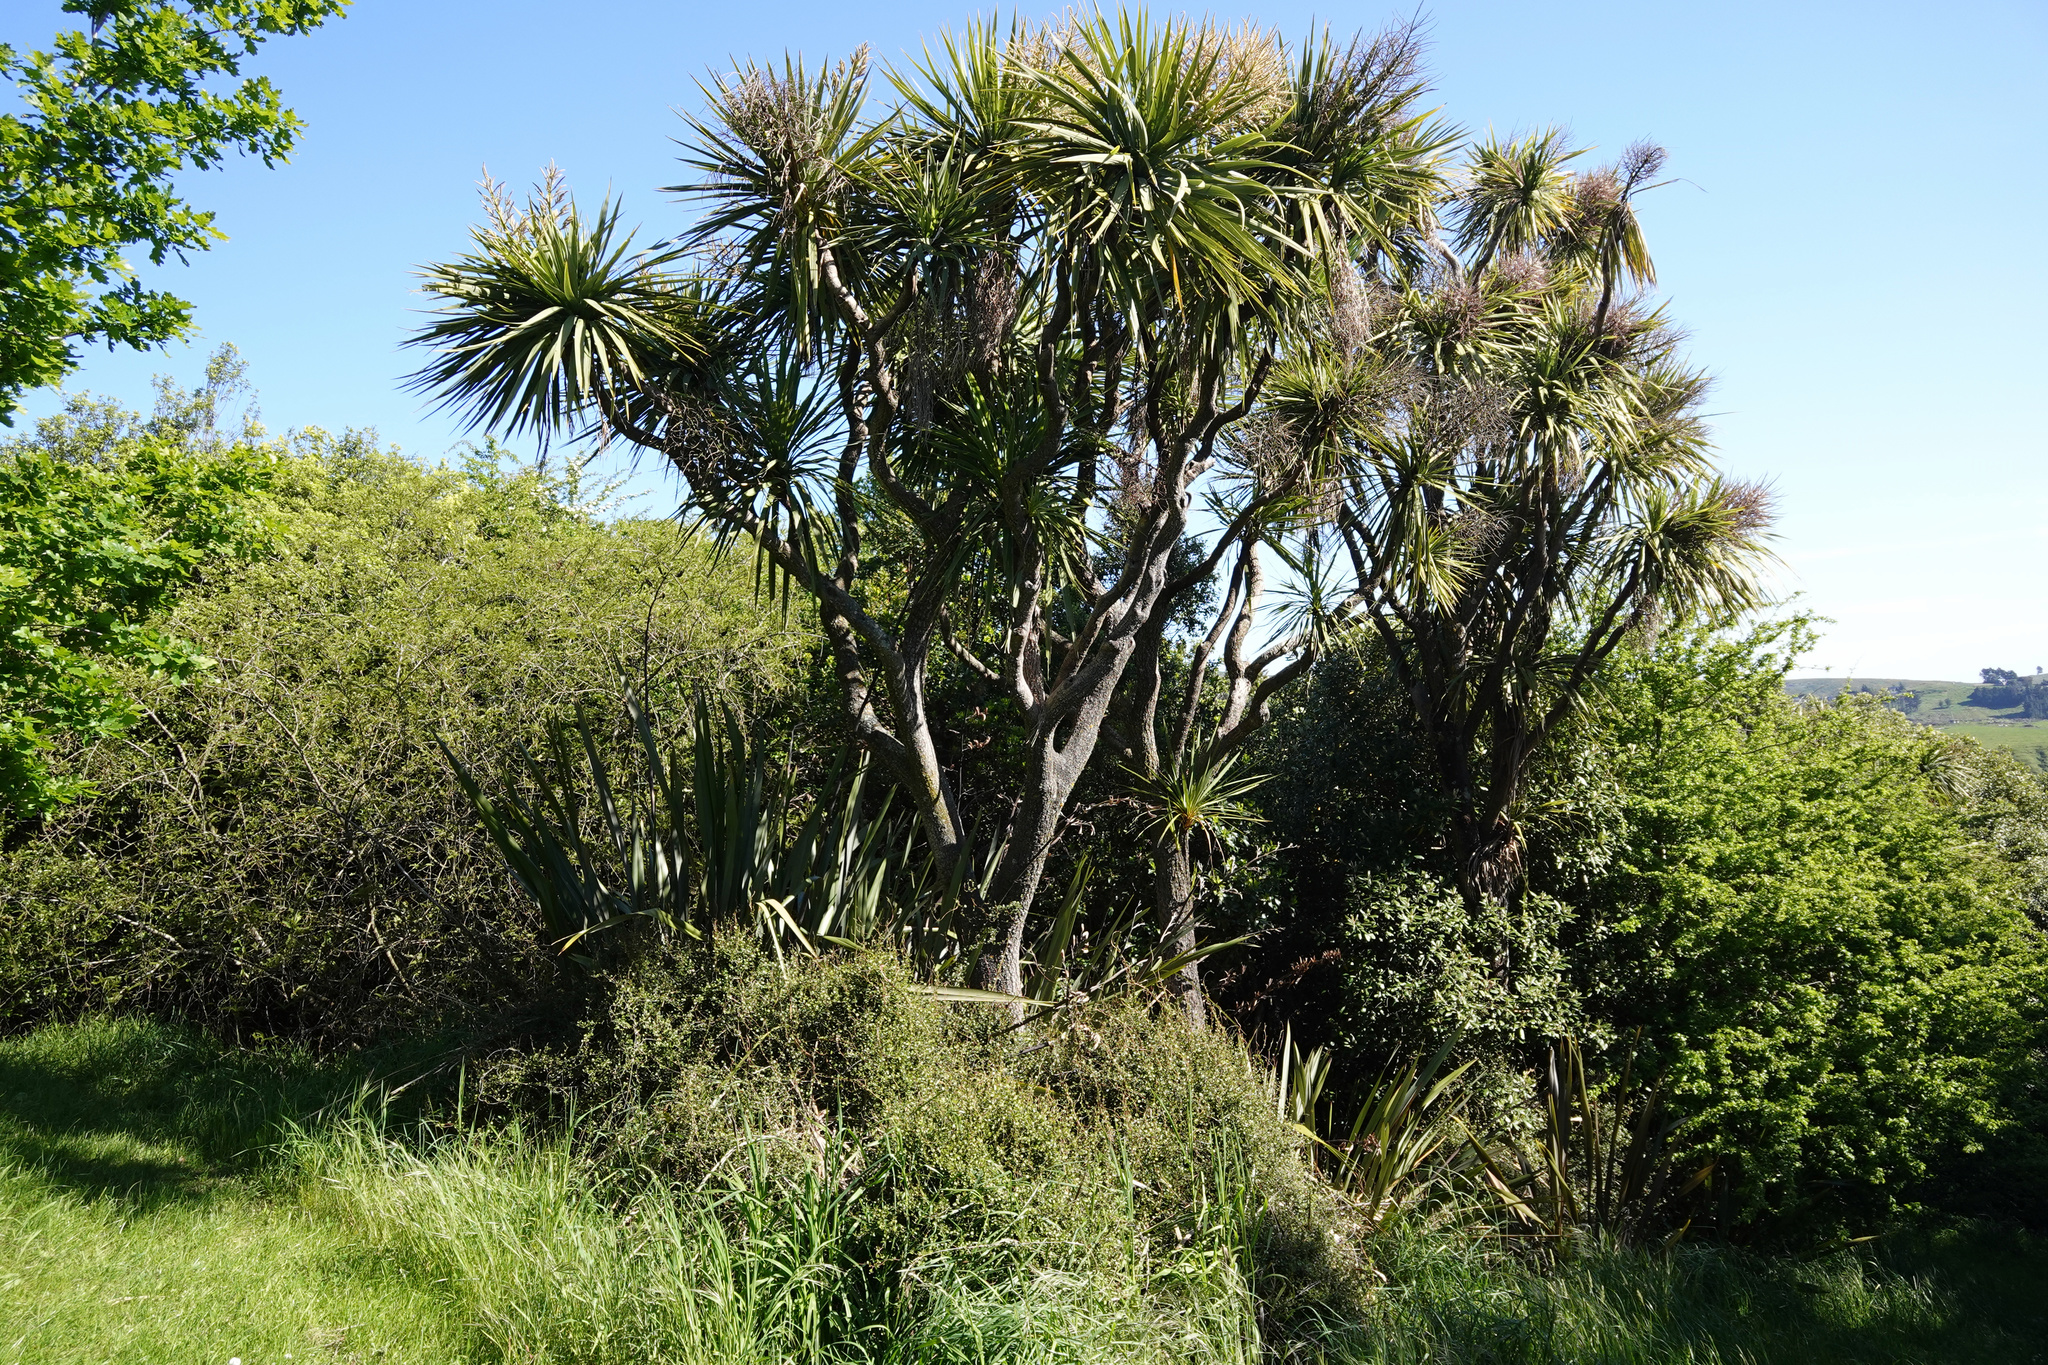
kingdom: Plantae
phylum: Tracheophyta
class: Liliopsida
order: Asparagales
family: Asparagaceae
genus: Cordyline
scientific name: Cordyline australis
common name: Cabbage-palm
